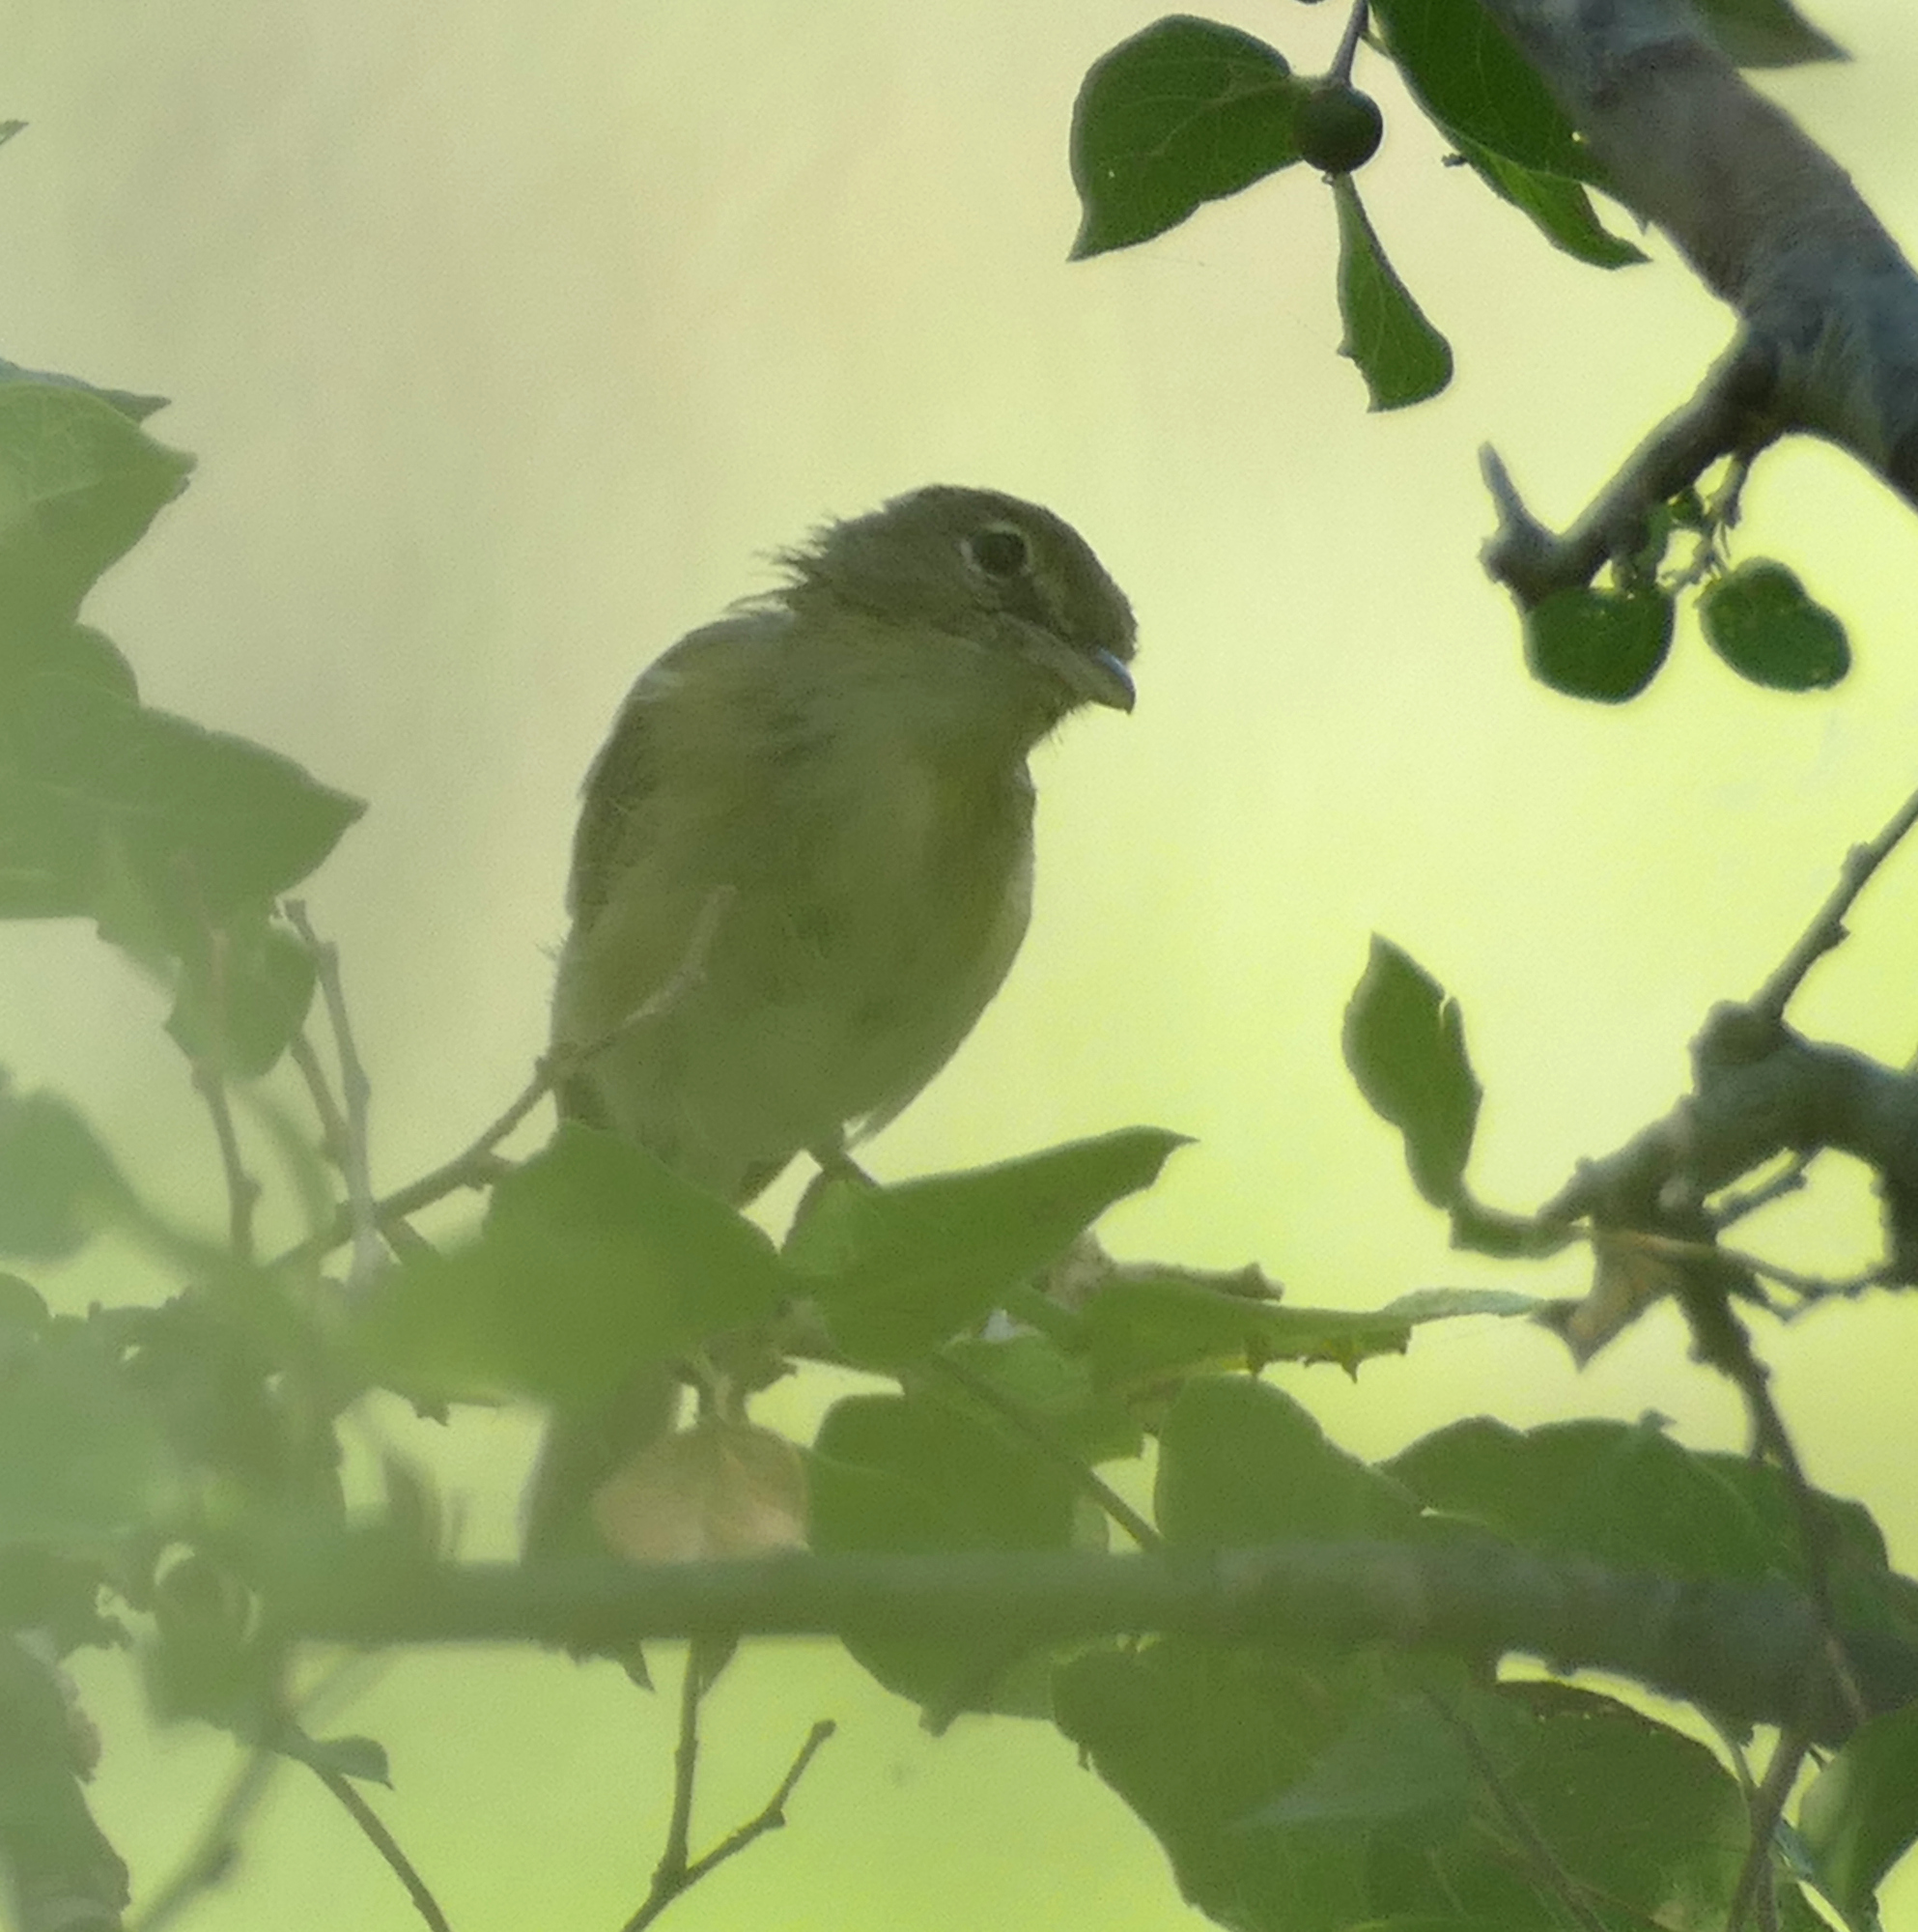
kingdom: Animalia
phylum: Chordata
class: Aves
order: Passeriformes
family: Vireonidae
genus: Vireo
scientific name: Vireo bellii
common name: Bell's vireo
